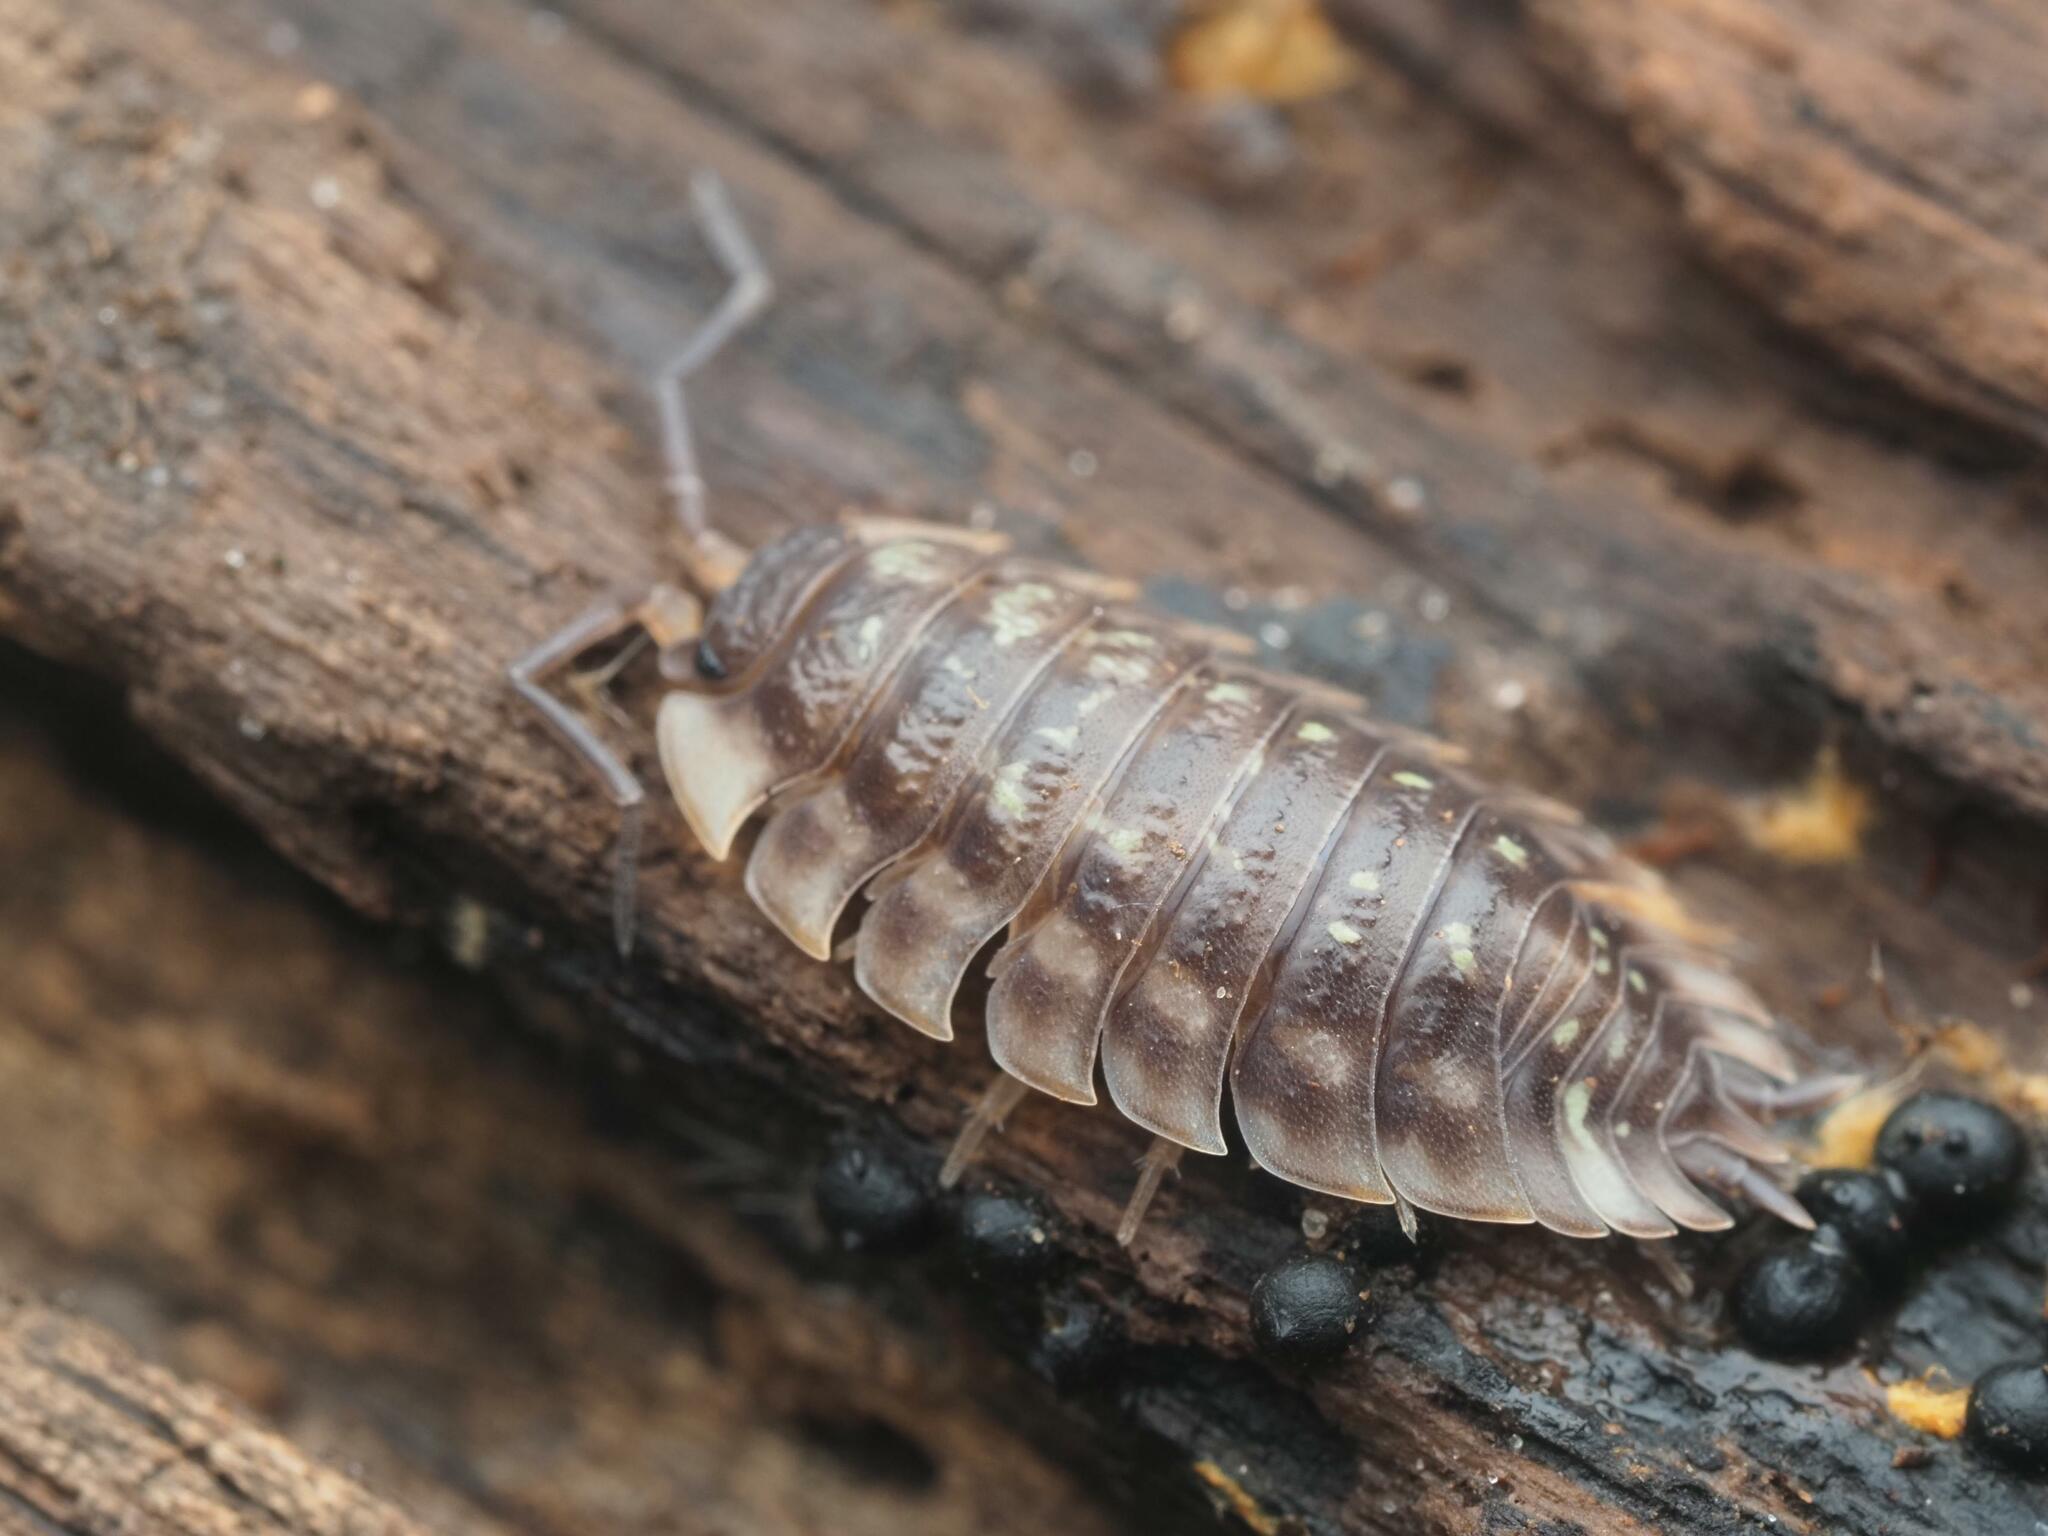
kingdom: Animalia
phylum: Arthropoda
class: Malacostraca
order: Isopoda
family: Oniscidae
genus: Oniscus
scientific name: Oniscus asellus
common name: Common shiny woodlouse
